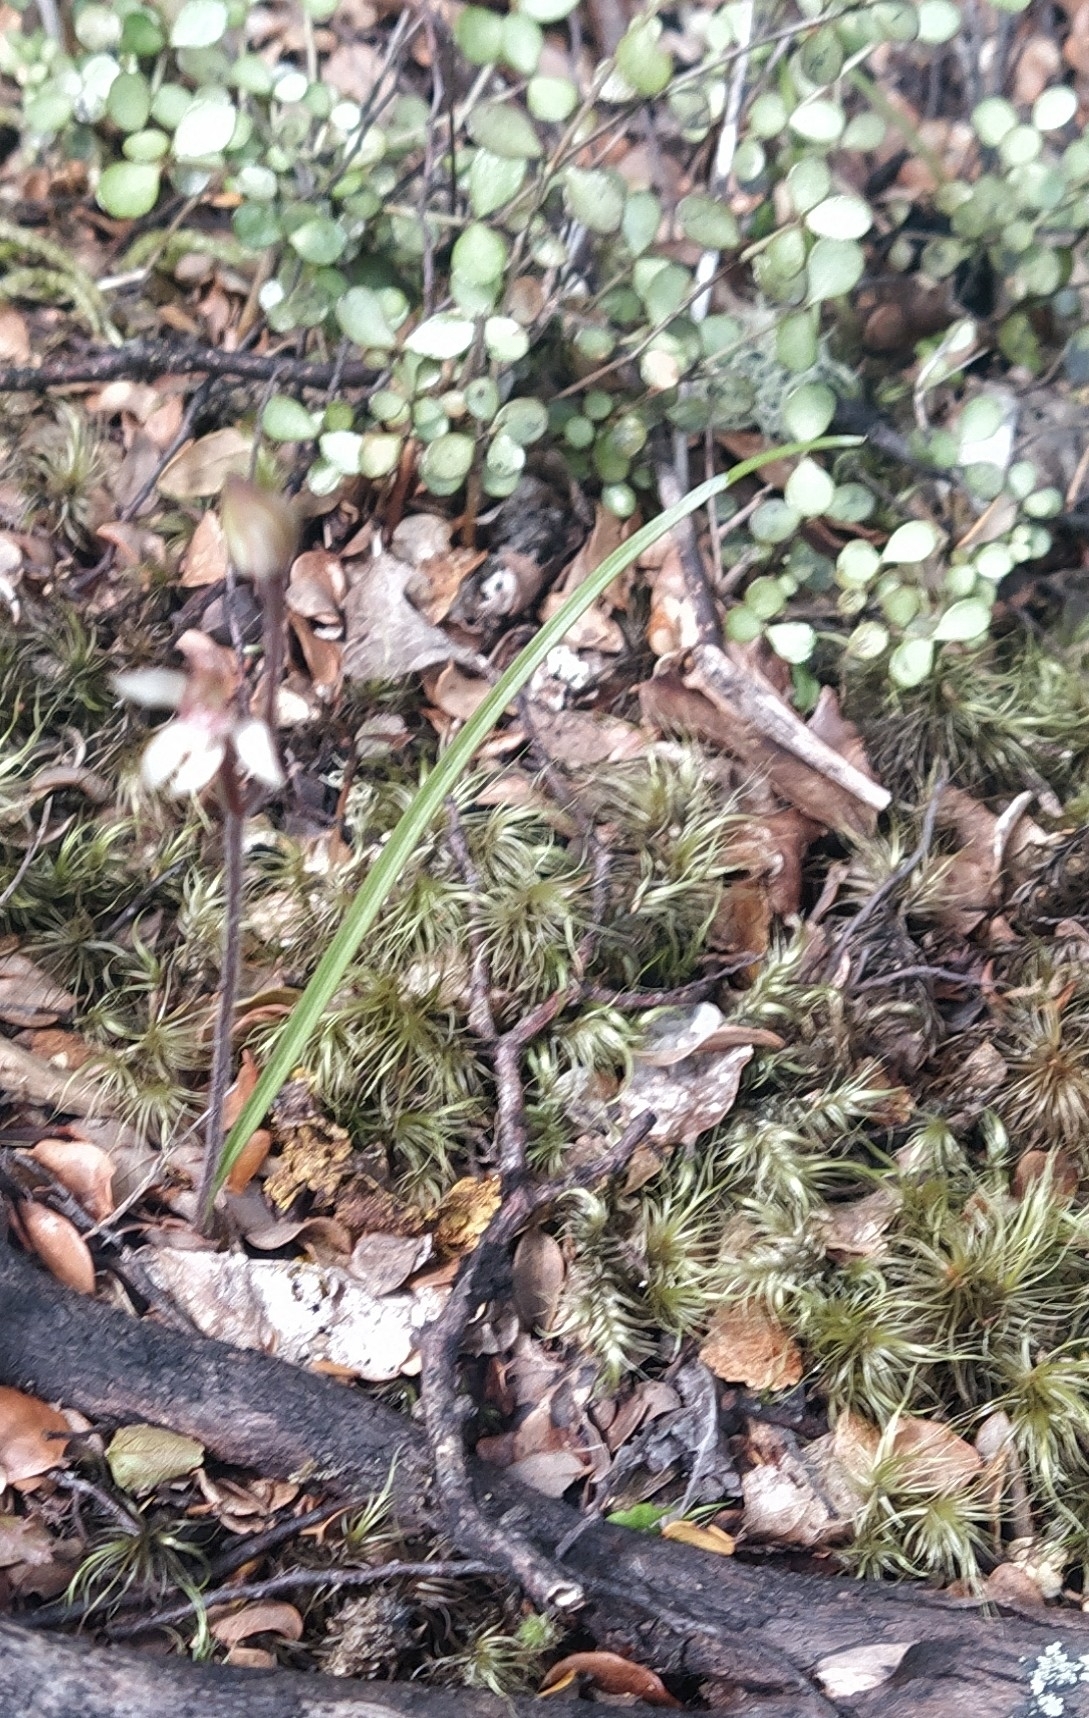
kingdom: Plantae
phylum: Tracheophyta
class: Liliopsida
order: Asparagales
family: Orchidaceae
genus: Caladenia
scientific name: Caladenia chlorostyla
